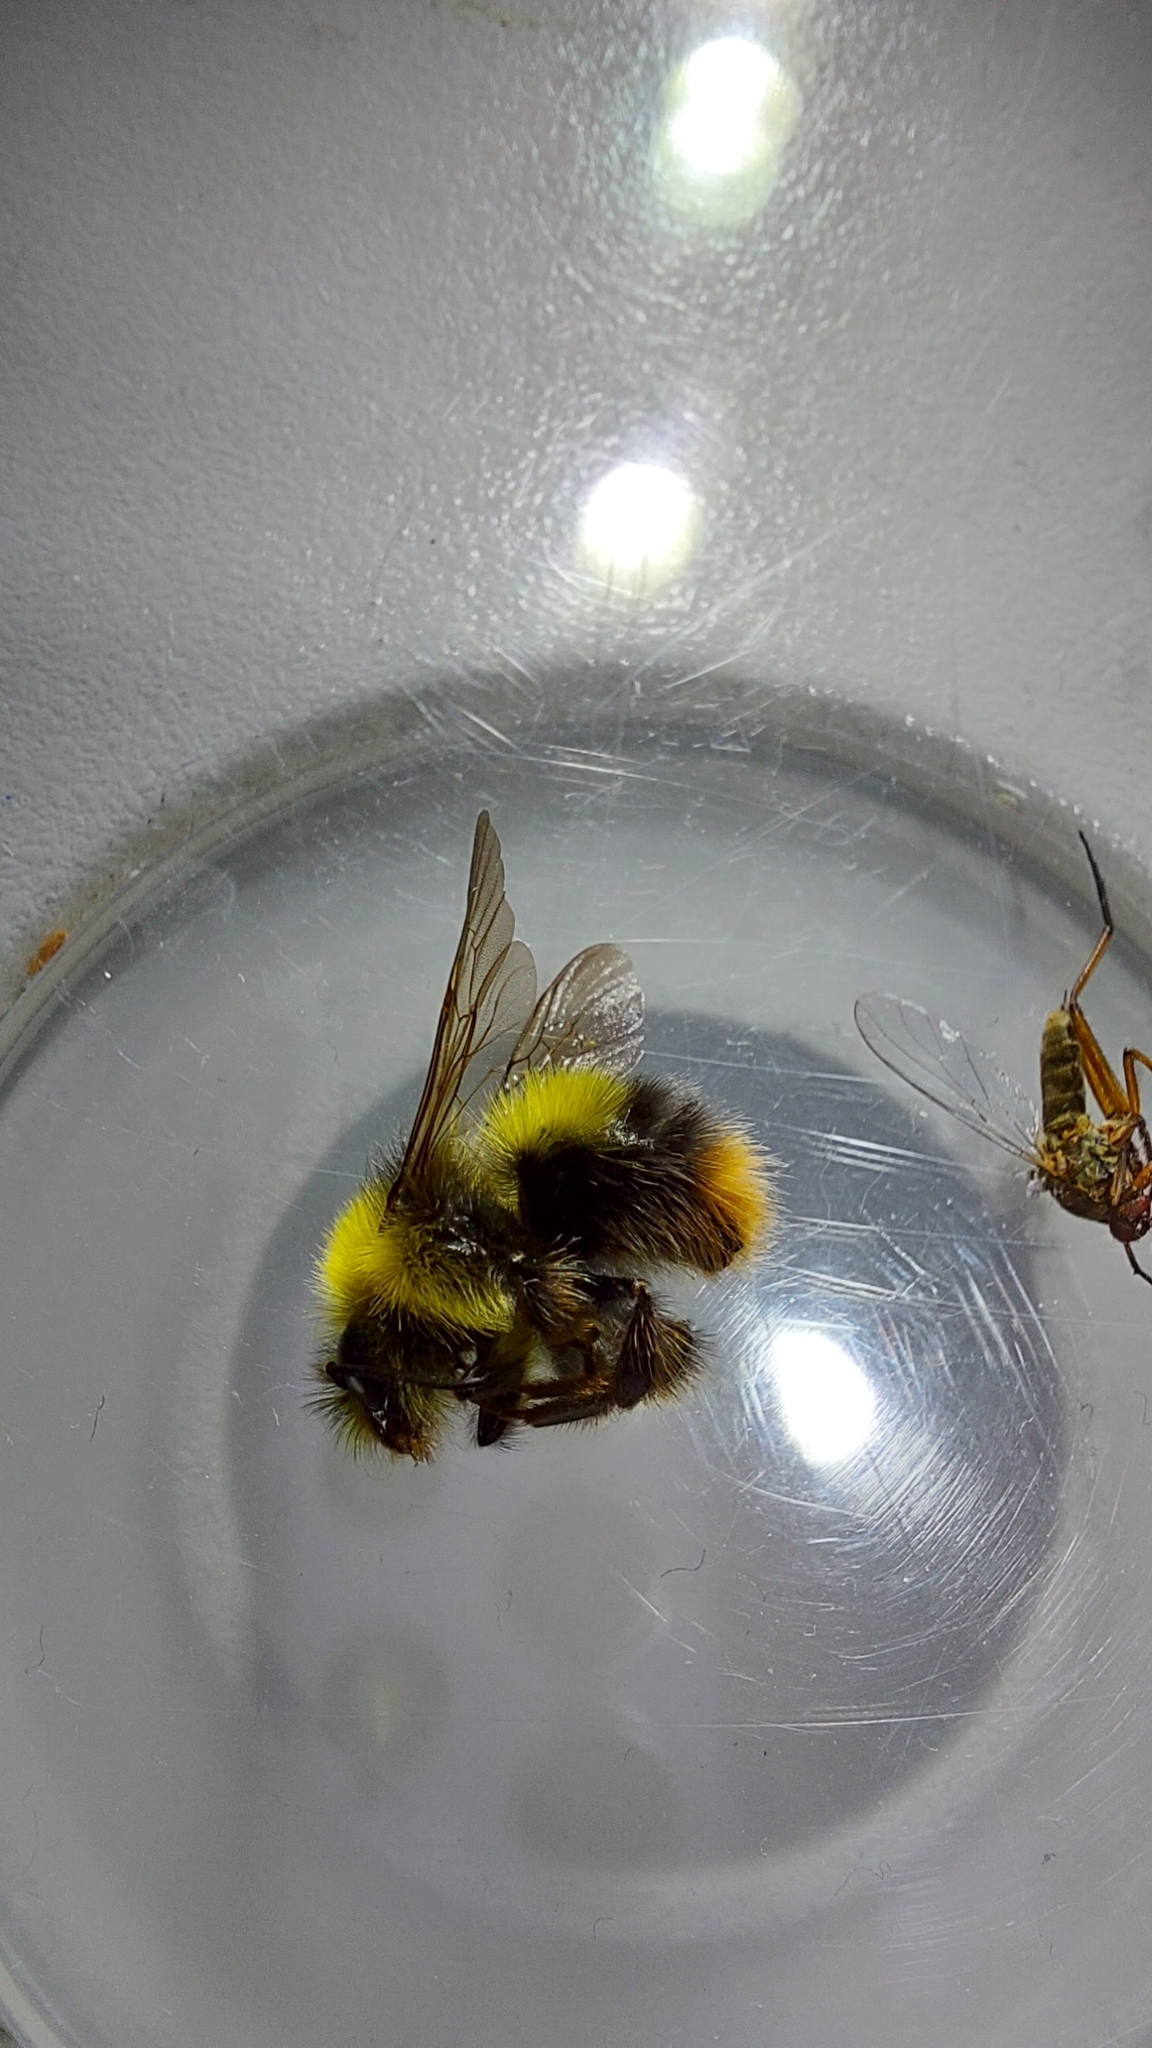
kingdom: Animalia
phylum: Arthropoda
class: Insecta
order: Hymenoptera
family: Apidae
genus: Bombus
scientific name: Bombus pratorum
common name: Early humble-bee
